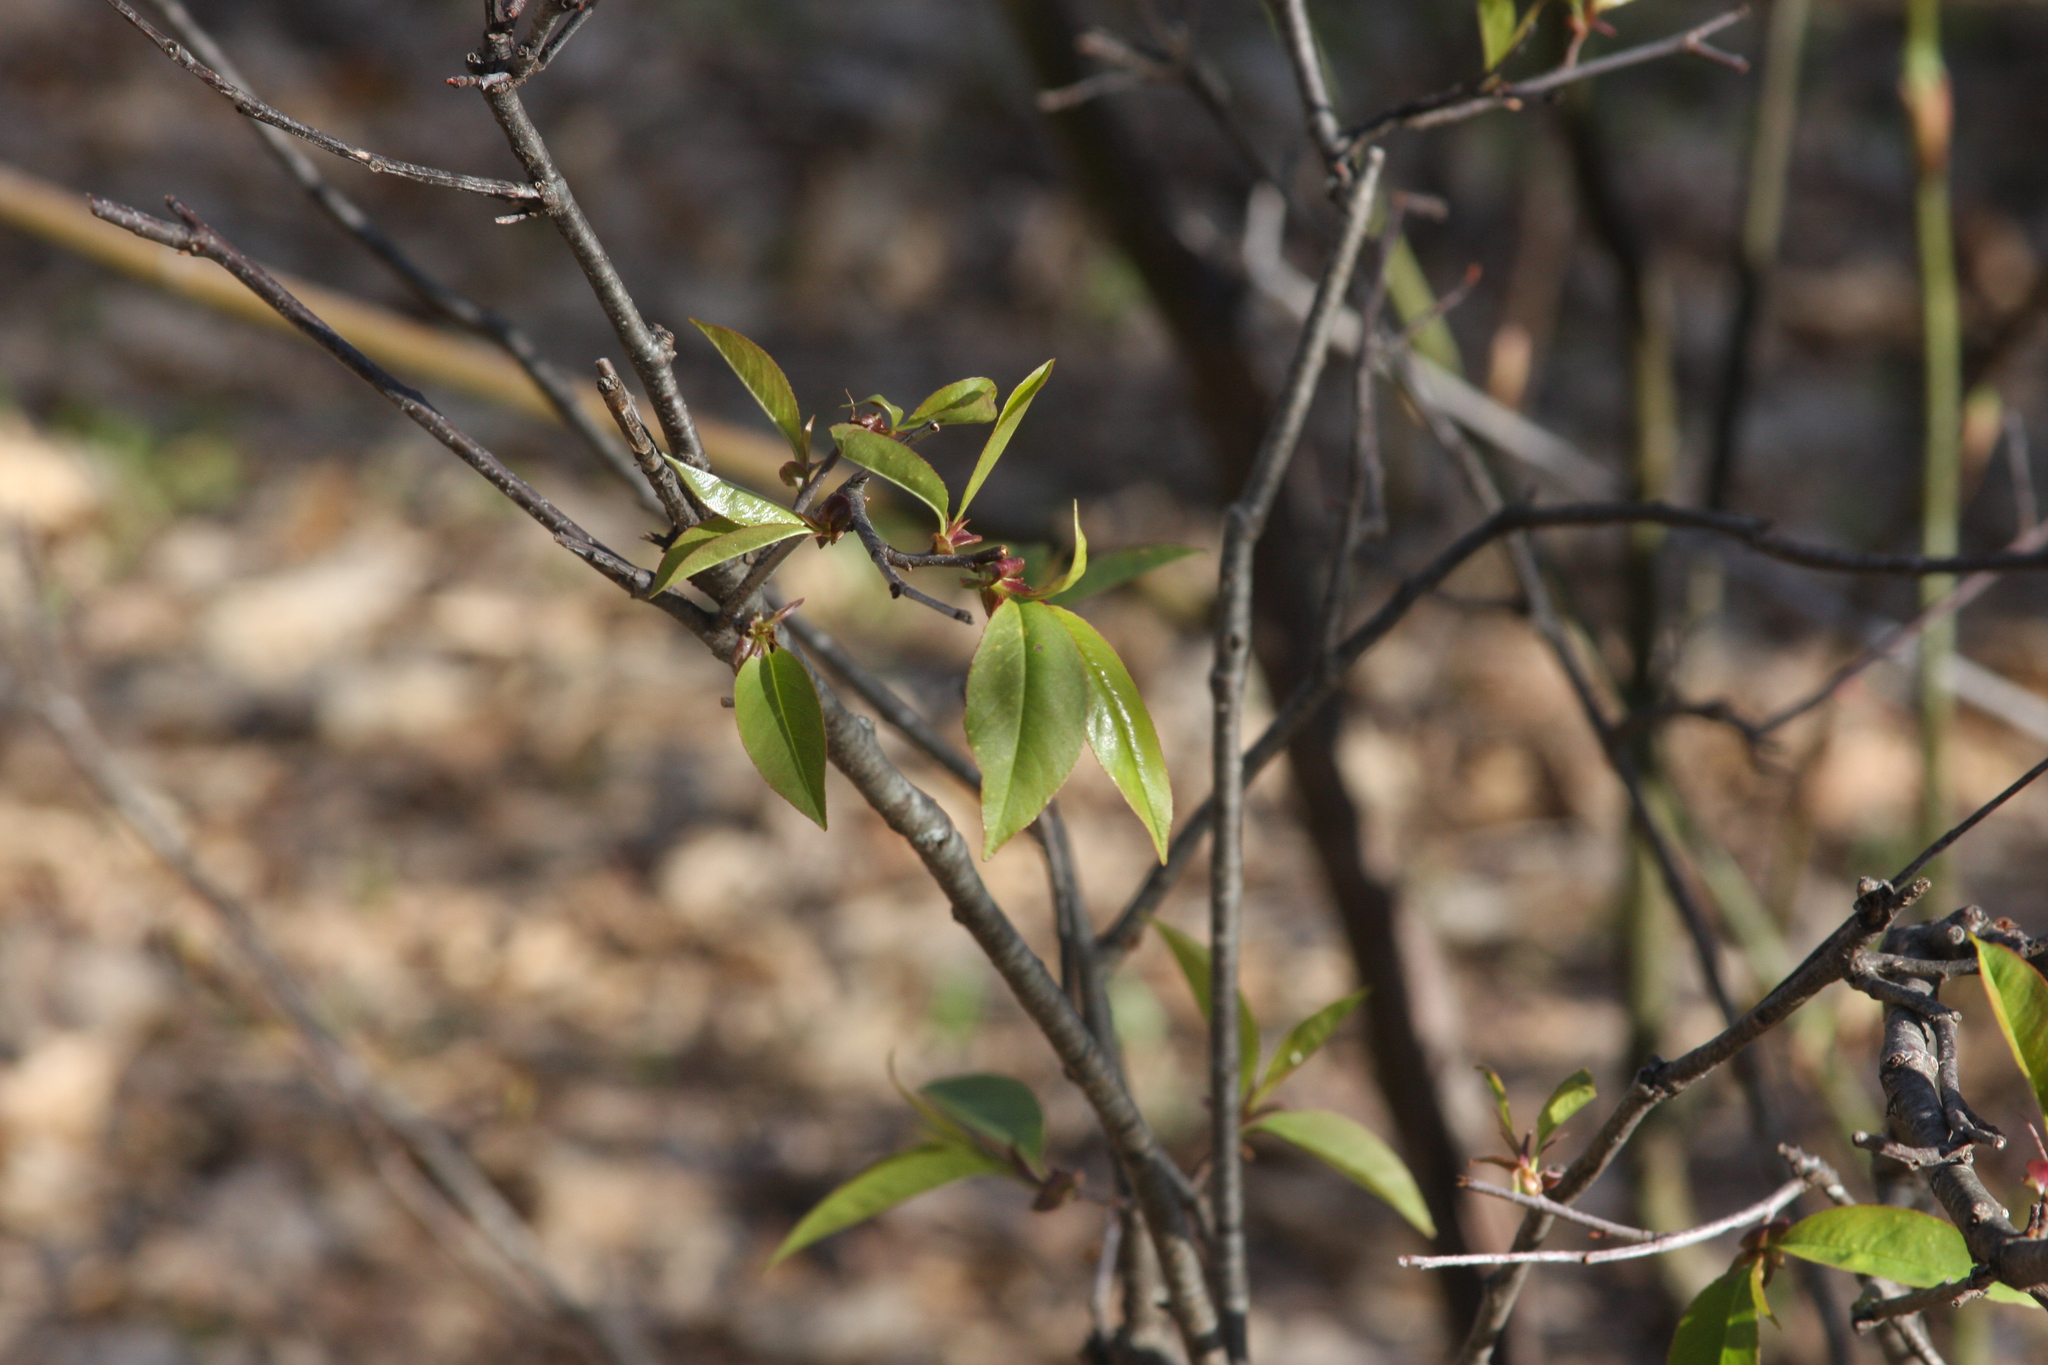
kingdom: Plantae
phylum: Tracheophyta
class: Magnoliopsida
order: Rosales
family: Rosaceae
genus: Prunus
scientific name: Prunus serotina
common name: Black cherry
